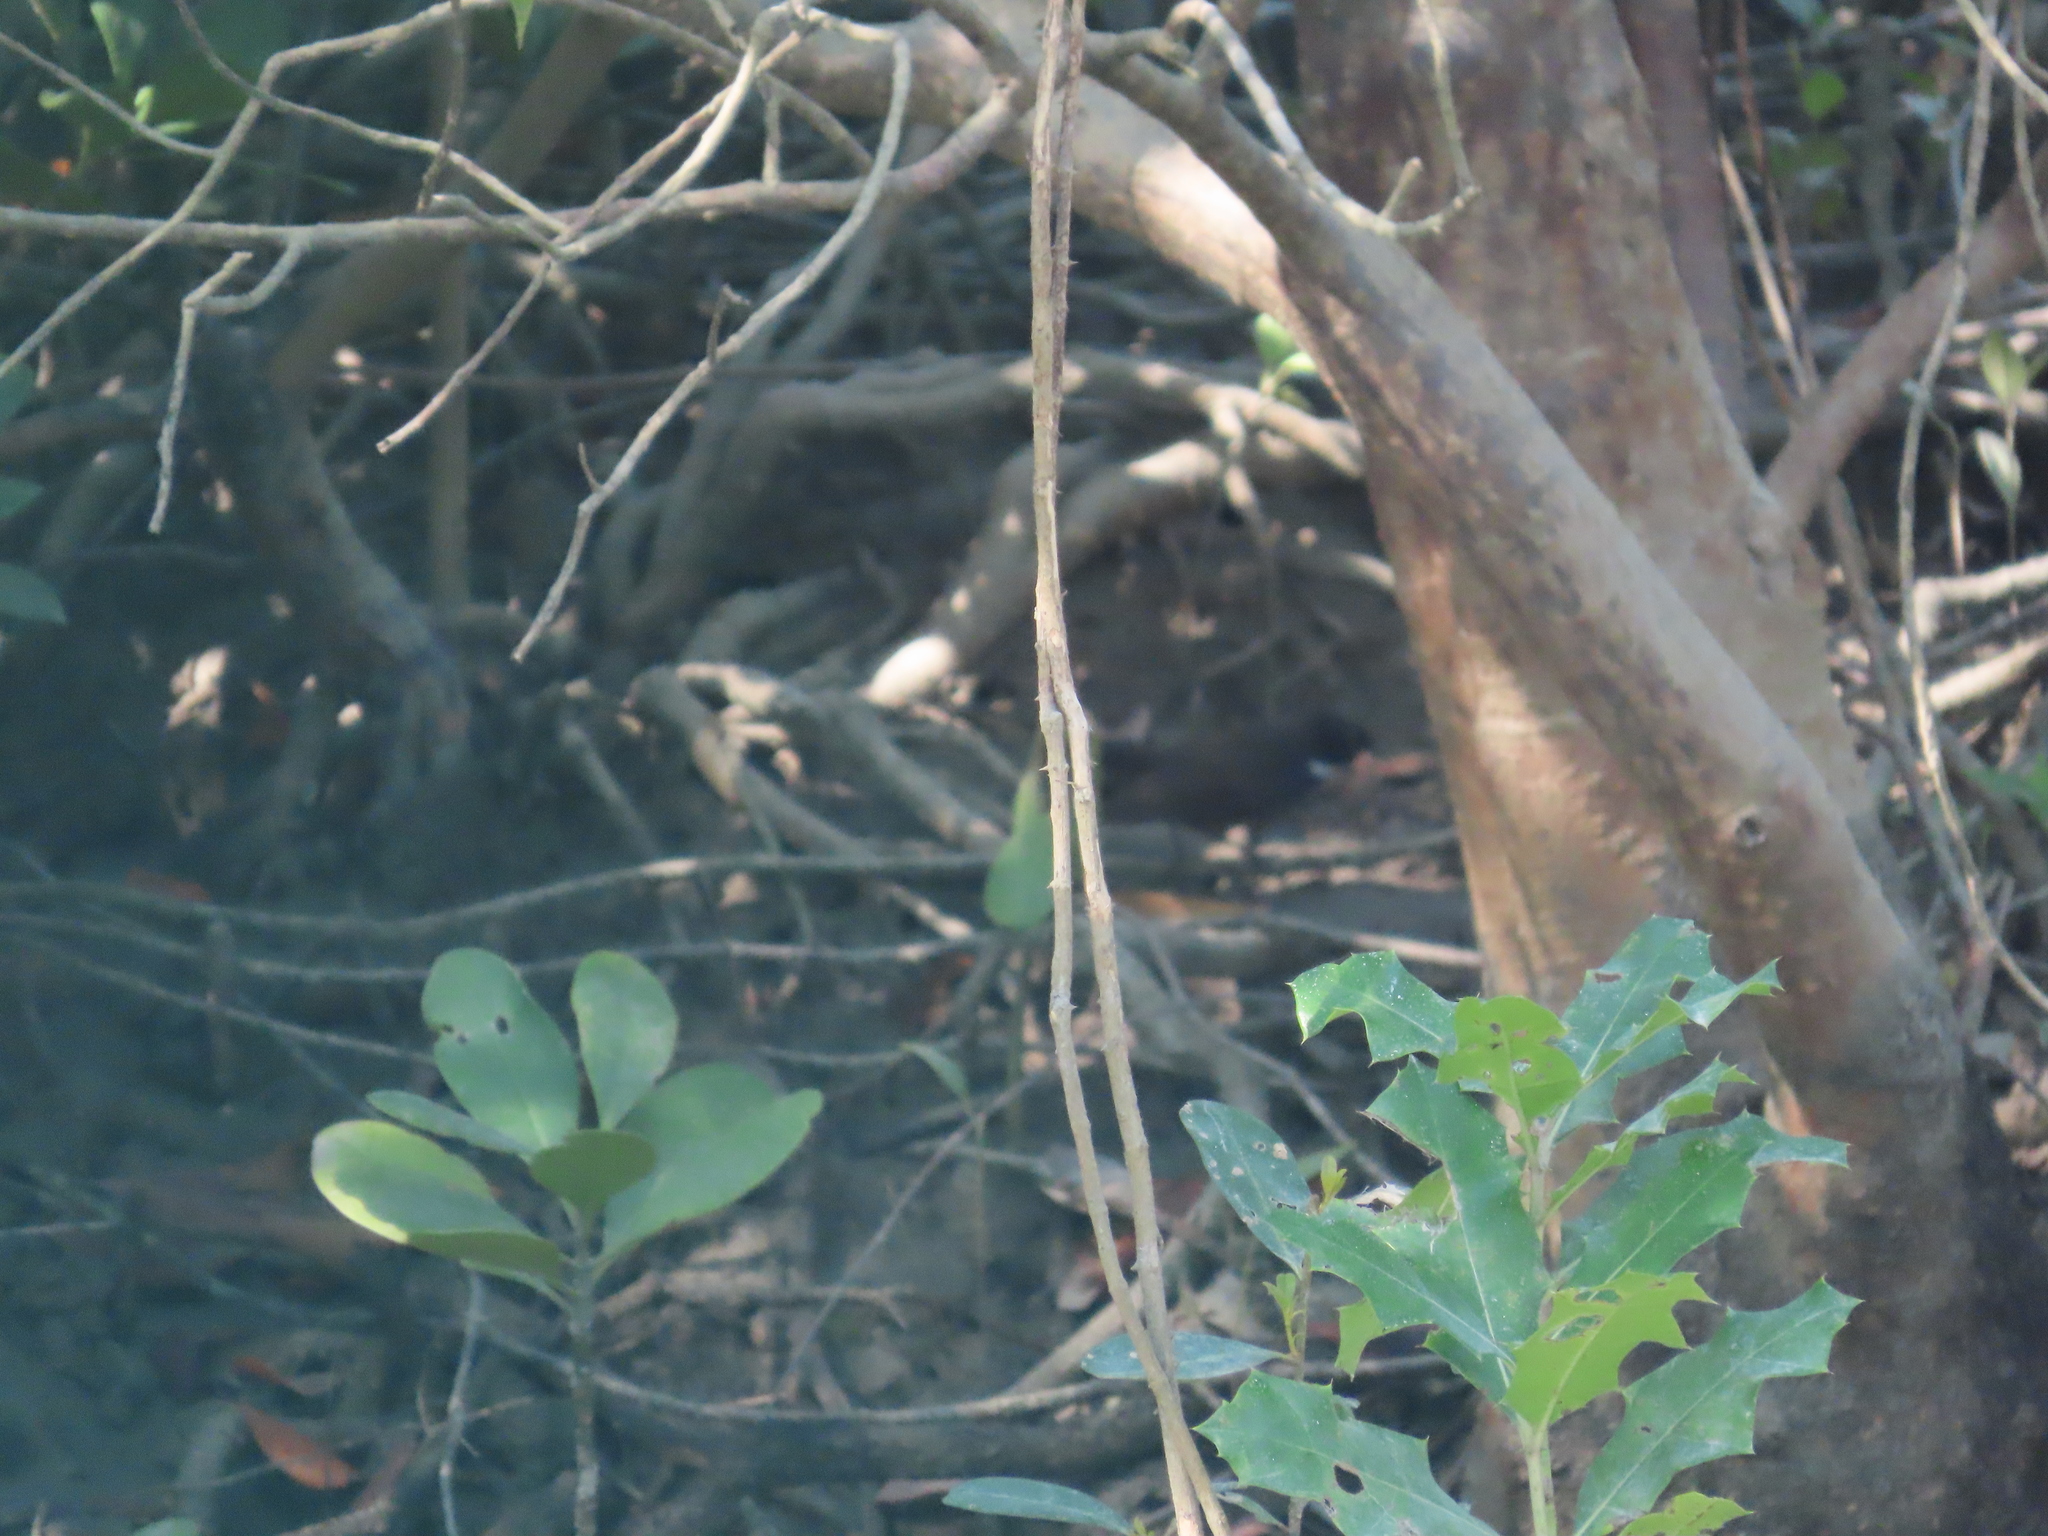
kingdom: Animalia
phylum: Chordata
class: Aves
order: Passeriformes
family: Rhipiduridae
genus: Rhipidura
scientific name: Rhipidura albicollis
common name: White-throated fantail
